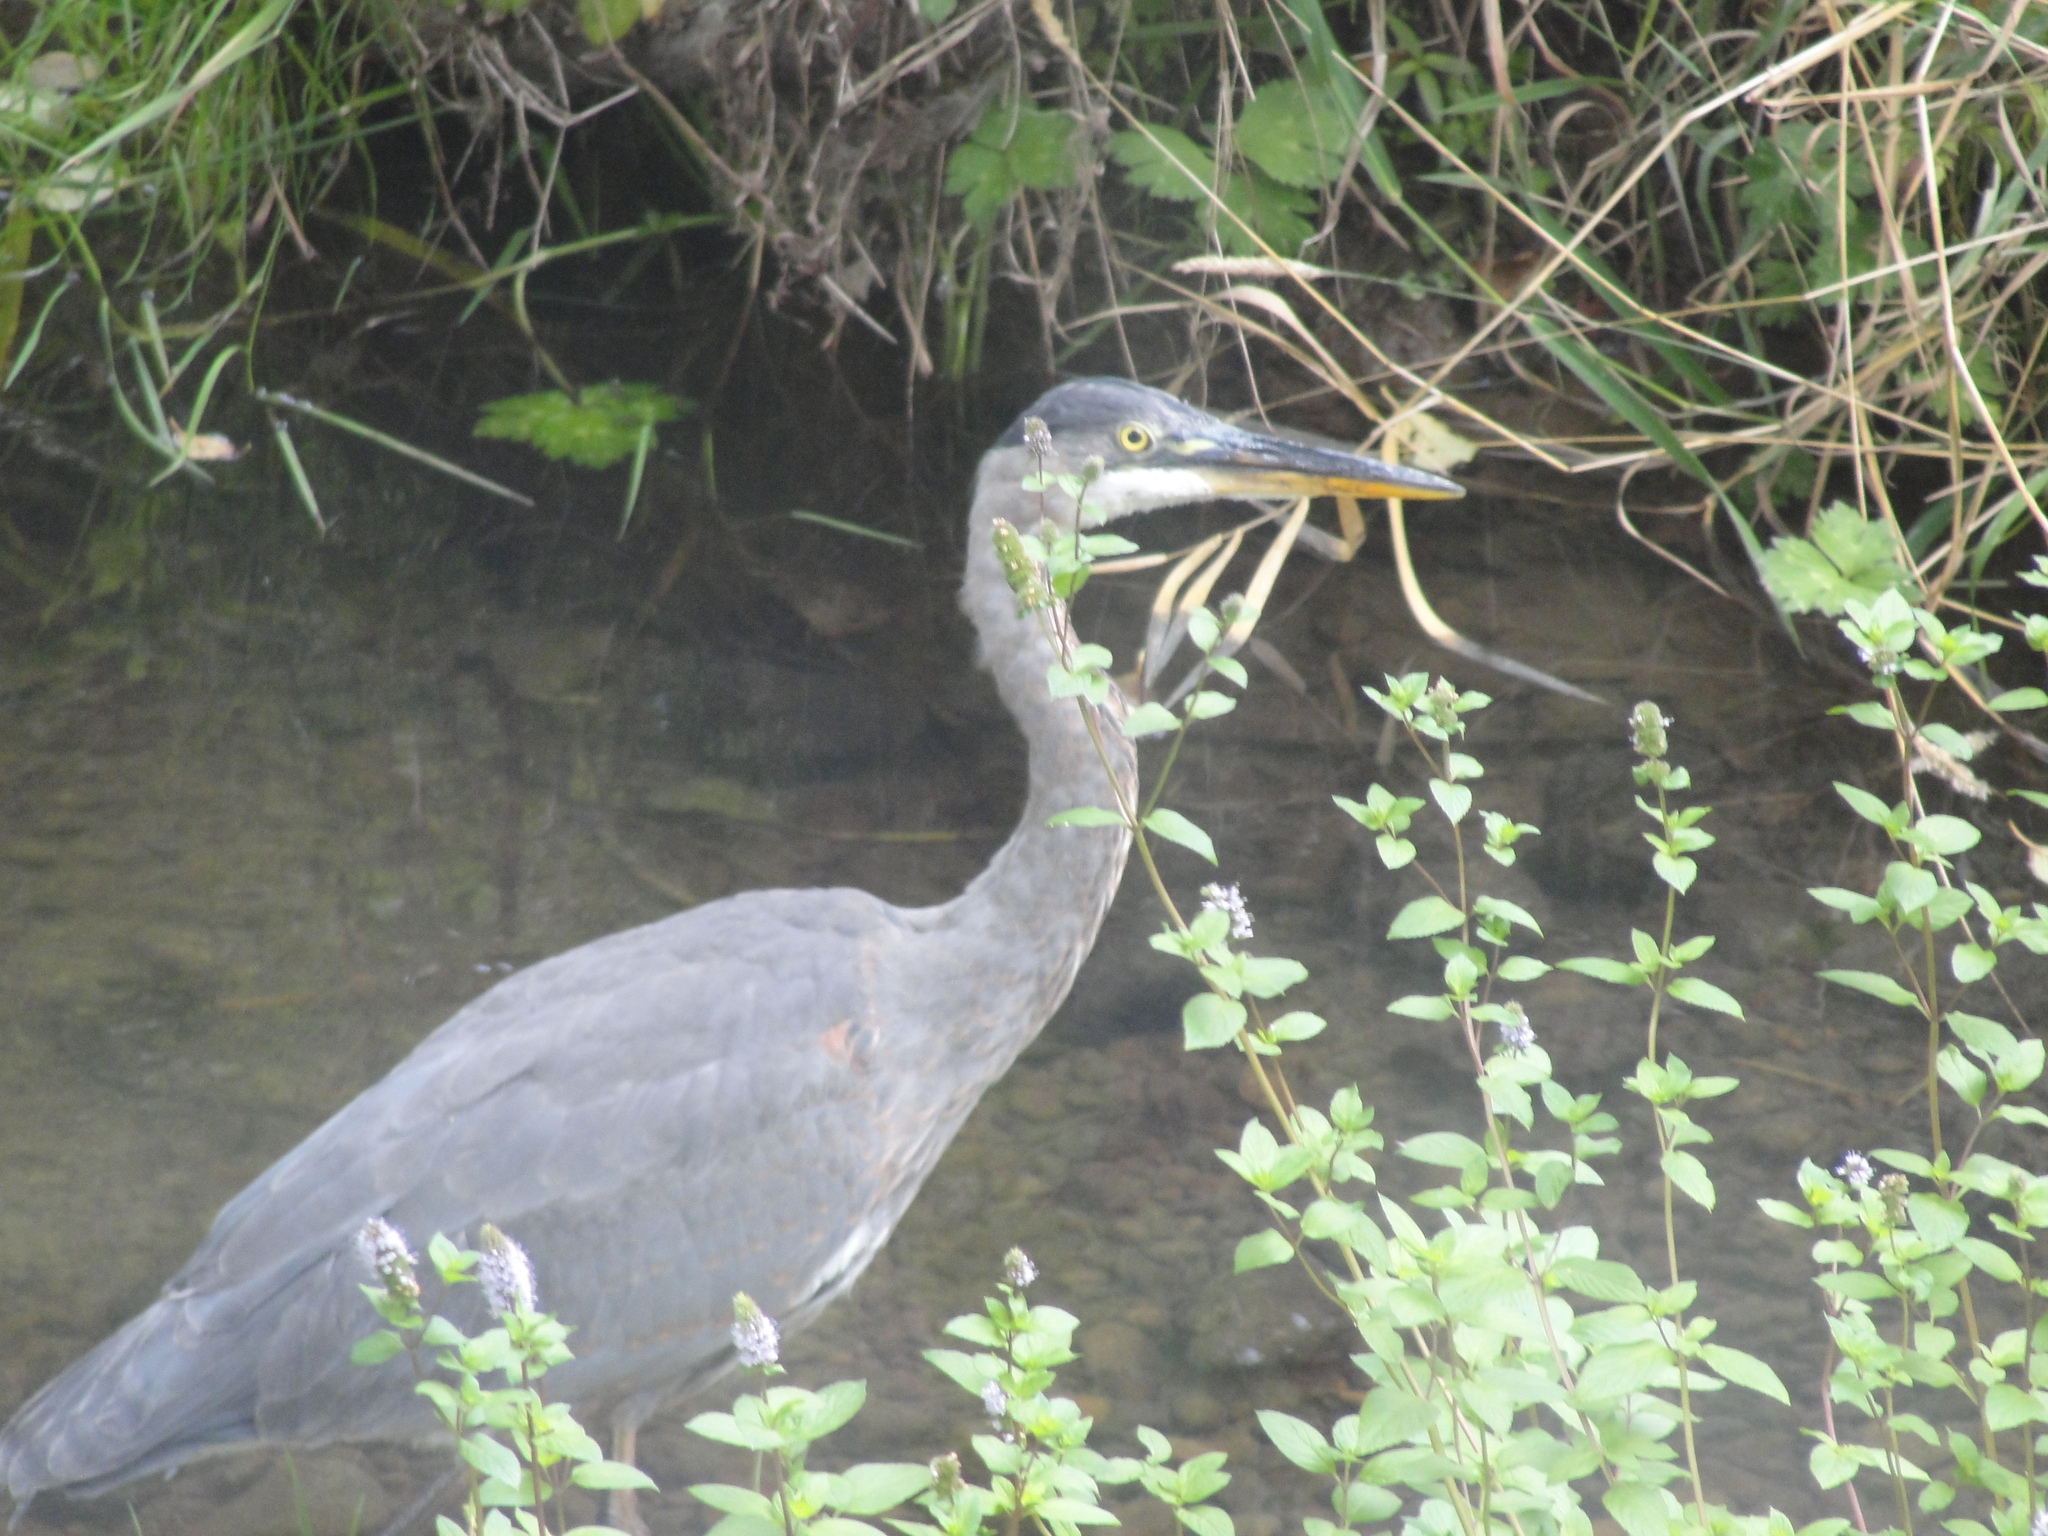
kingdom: Animalia
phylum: Chordata
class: Aves
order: Pelecaniformes
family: Ardeidae
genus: Ardea
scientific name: Ardea herodias
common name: Great blue heron
